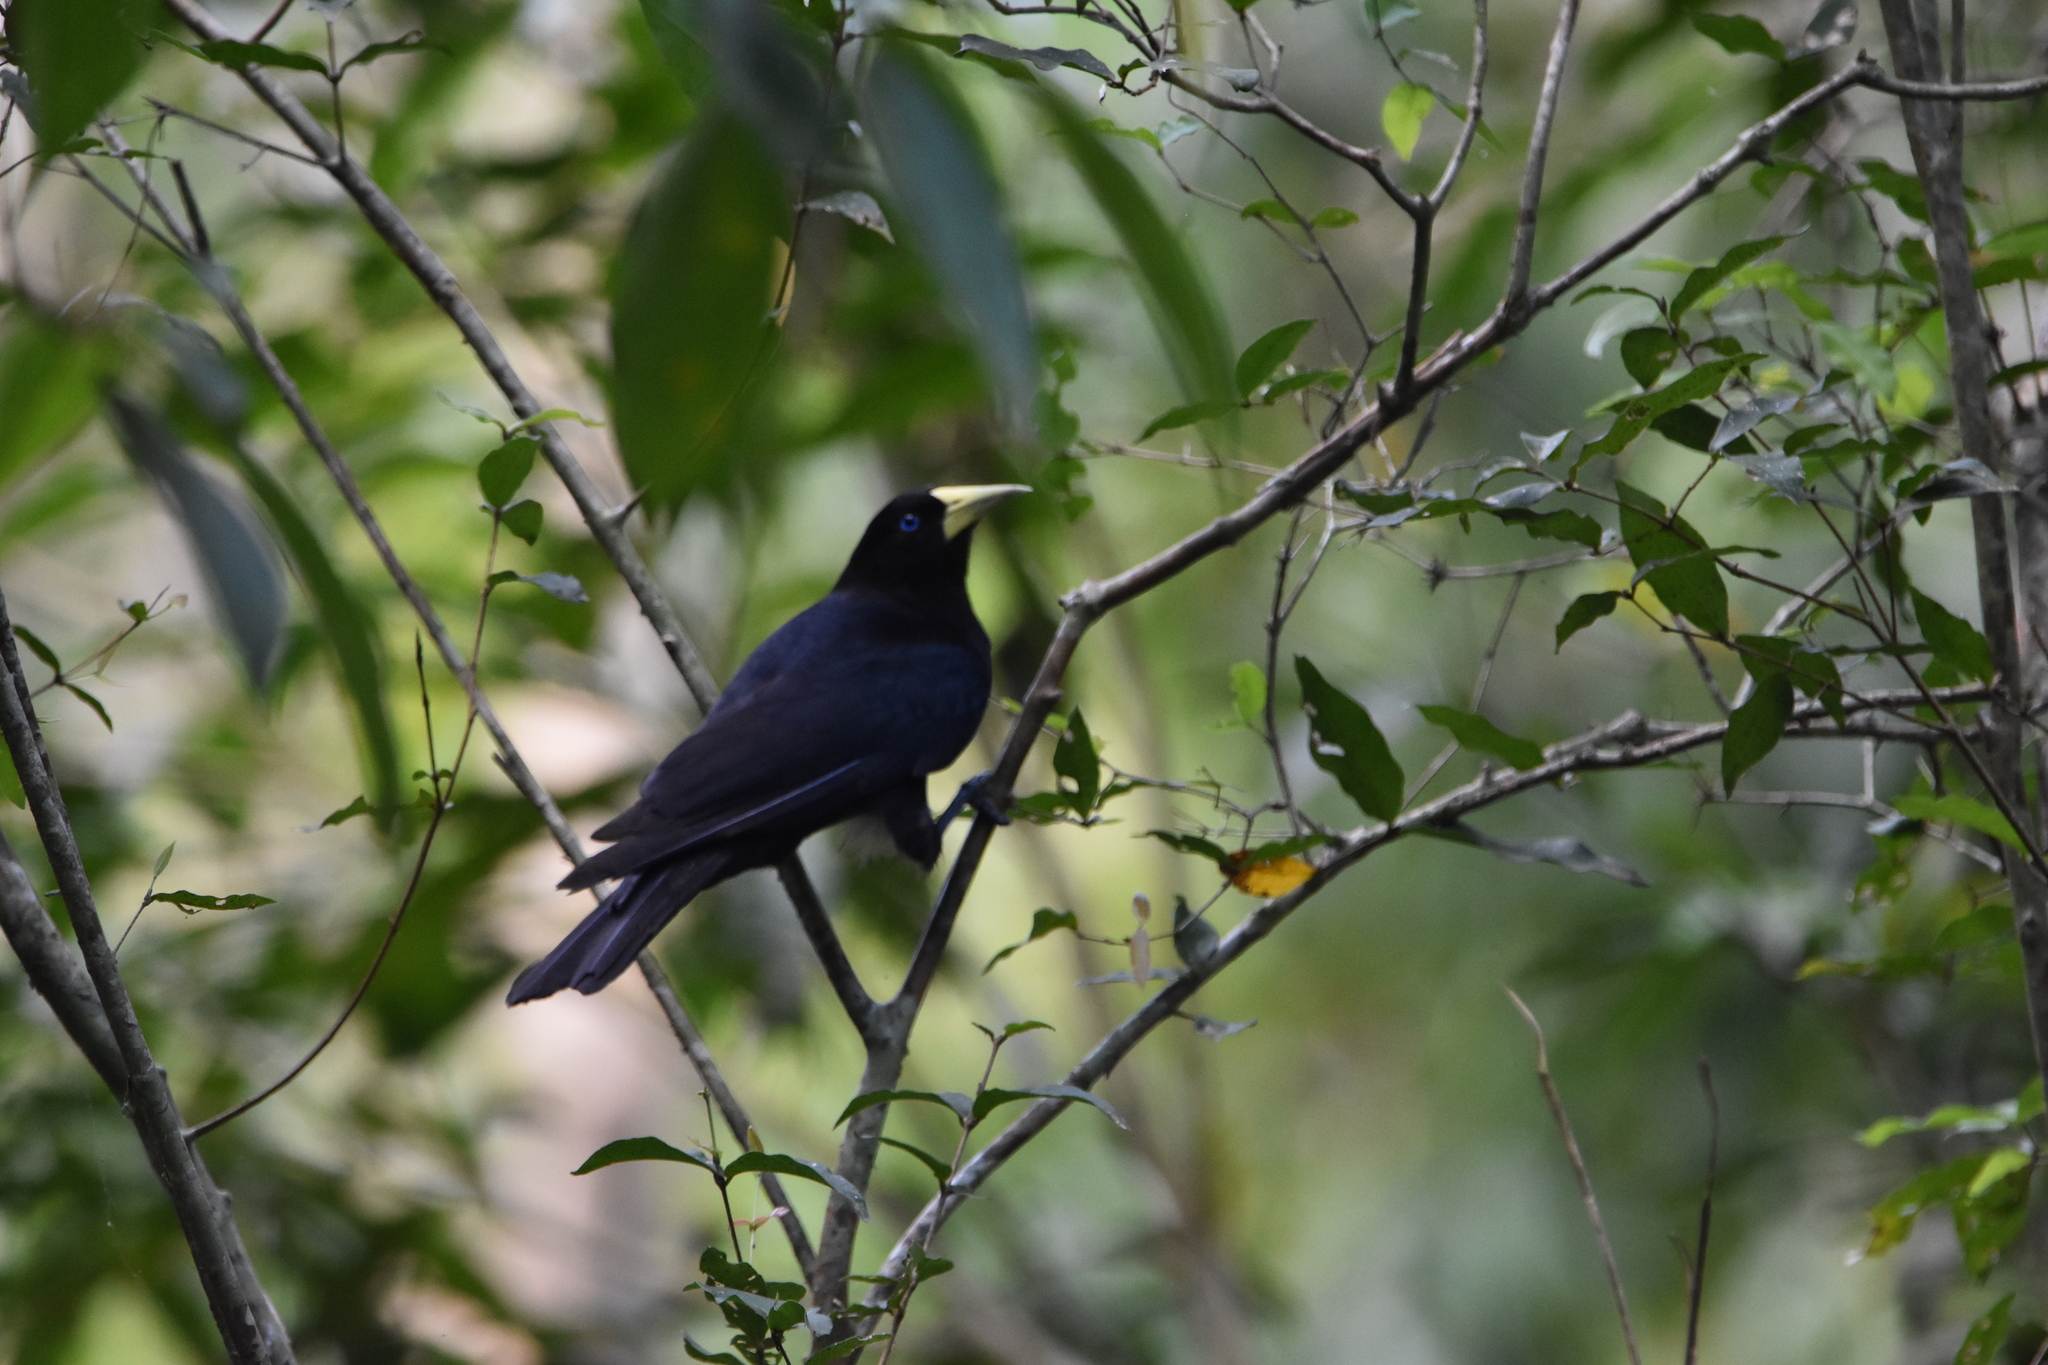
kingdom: Animalia
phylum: Chordata
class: Aves
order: Passeriformes
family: Icteridae
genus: Cacicus
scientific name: Cacicus haemorrhous
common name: Red-rumped cacique
